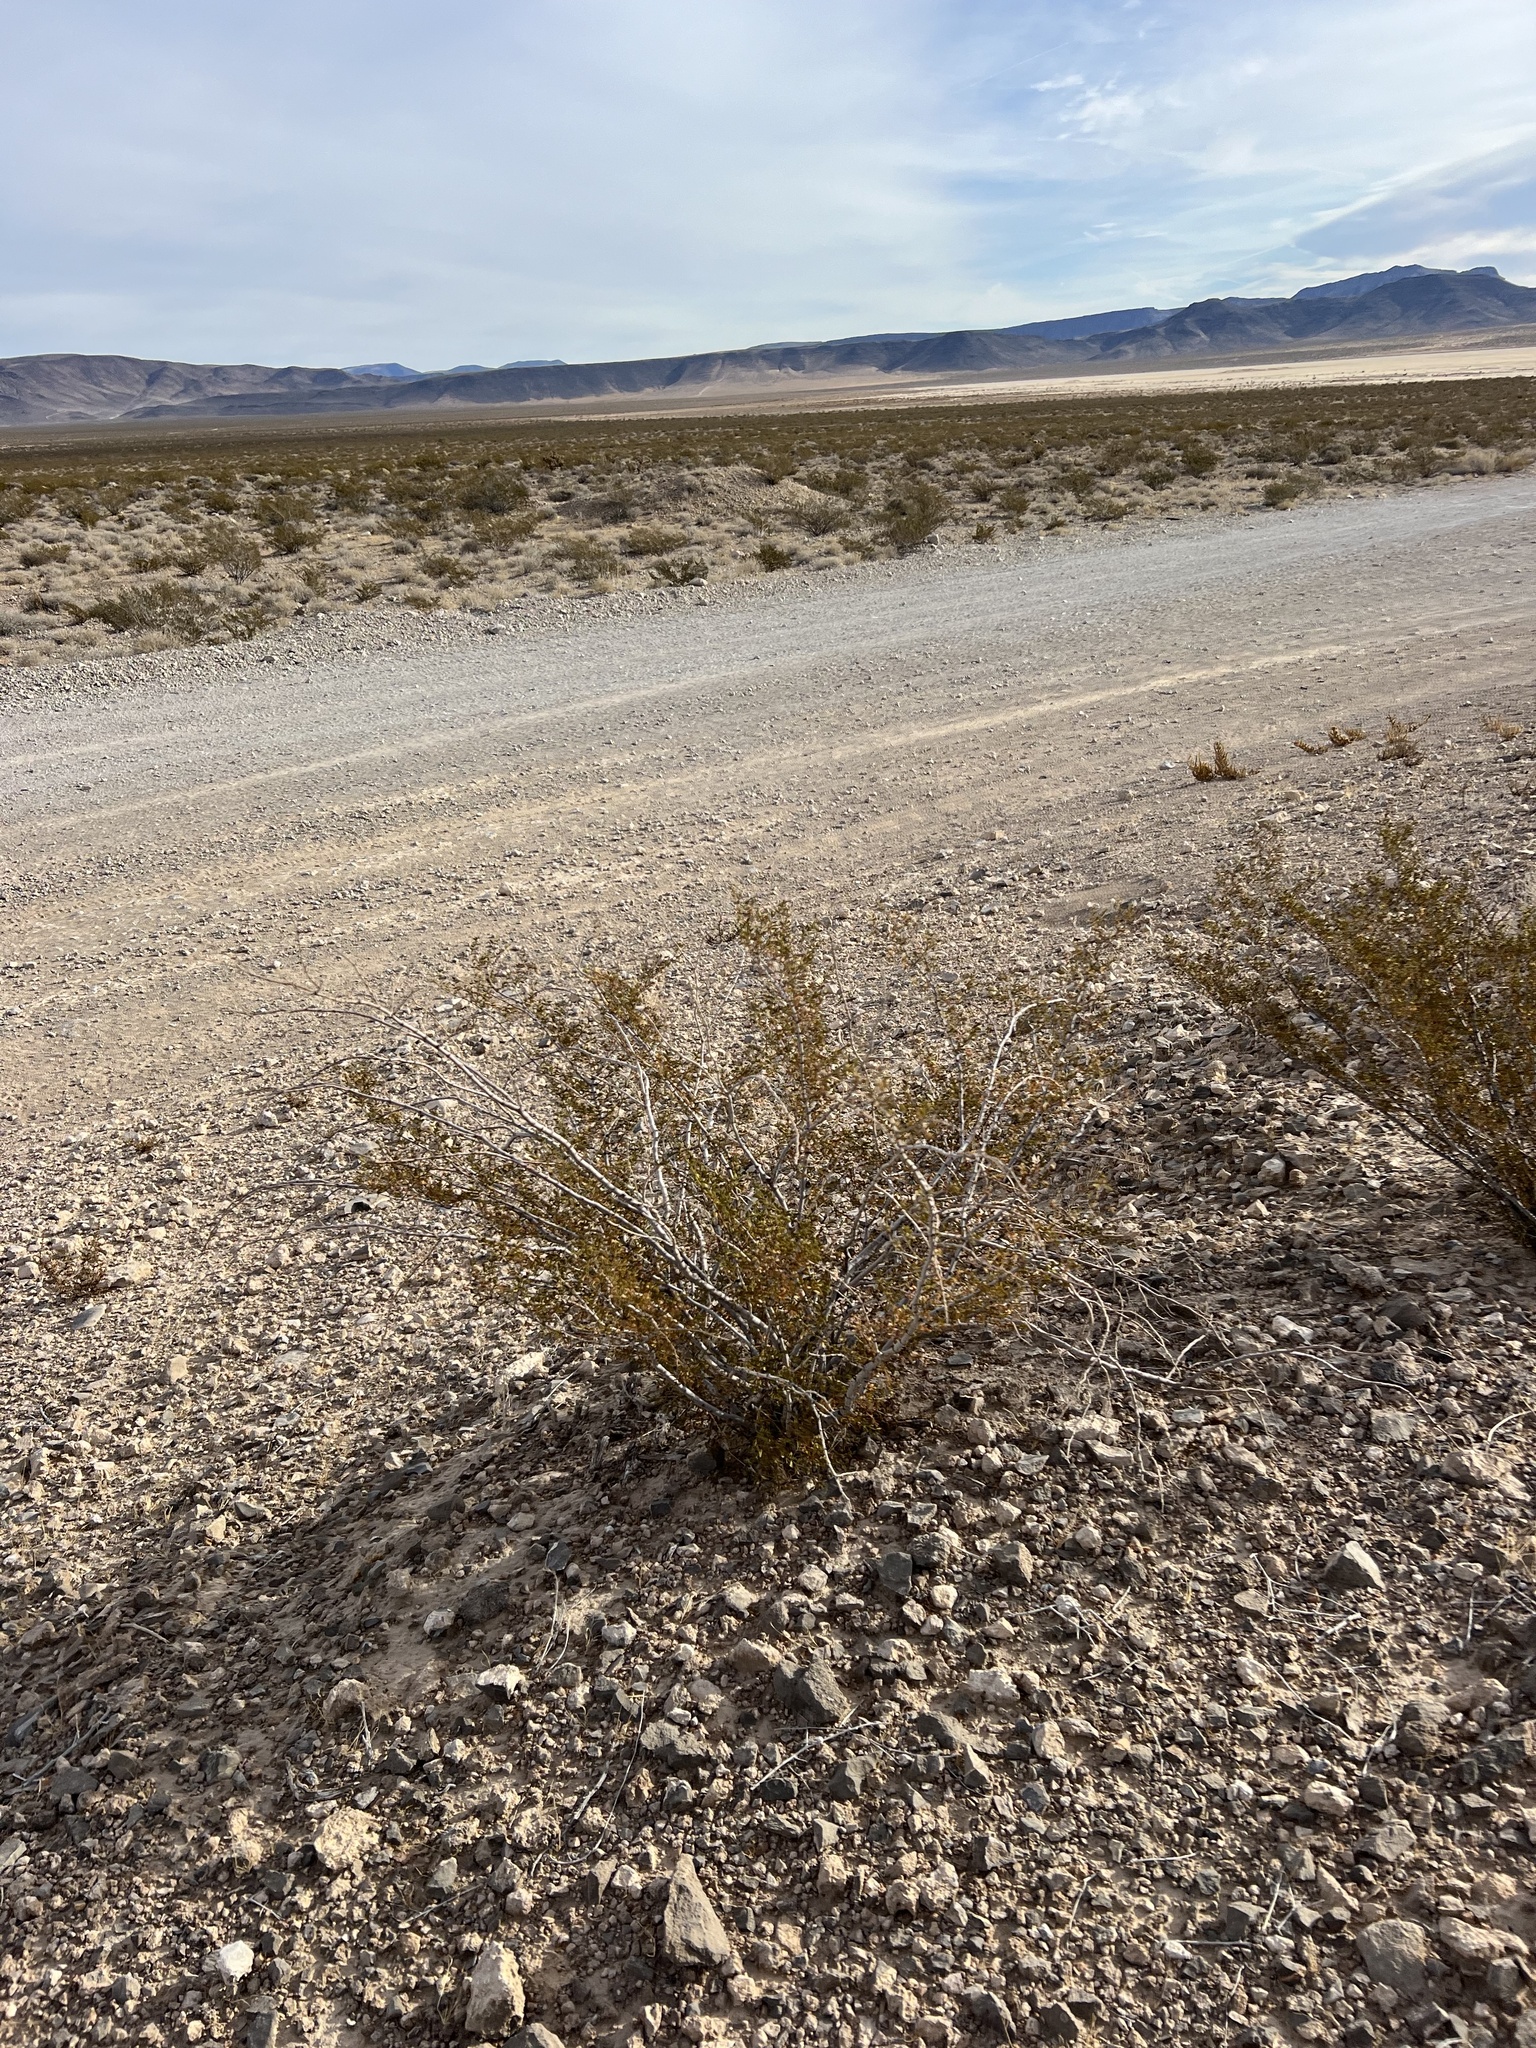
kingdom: Plantae
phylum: Tracheophyta
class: Magnoliopsida
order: Zygophyllales
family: Zygophyllaceae
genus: Larrea
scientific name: Larrea tridentata
